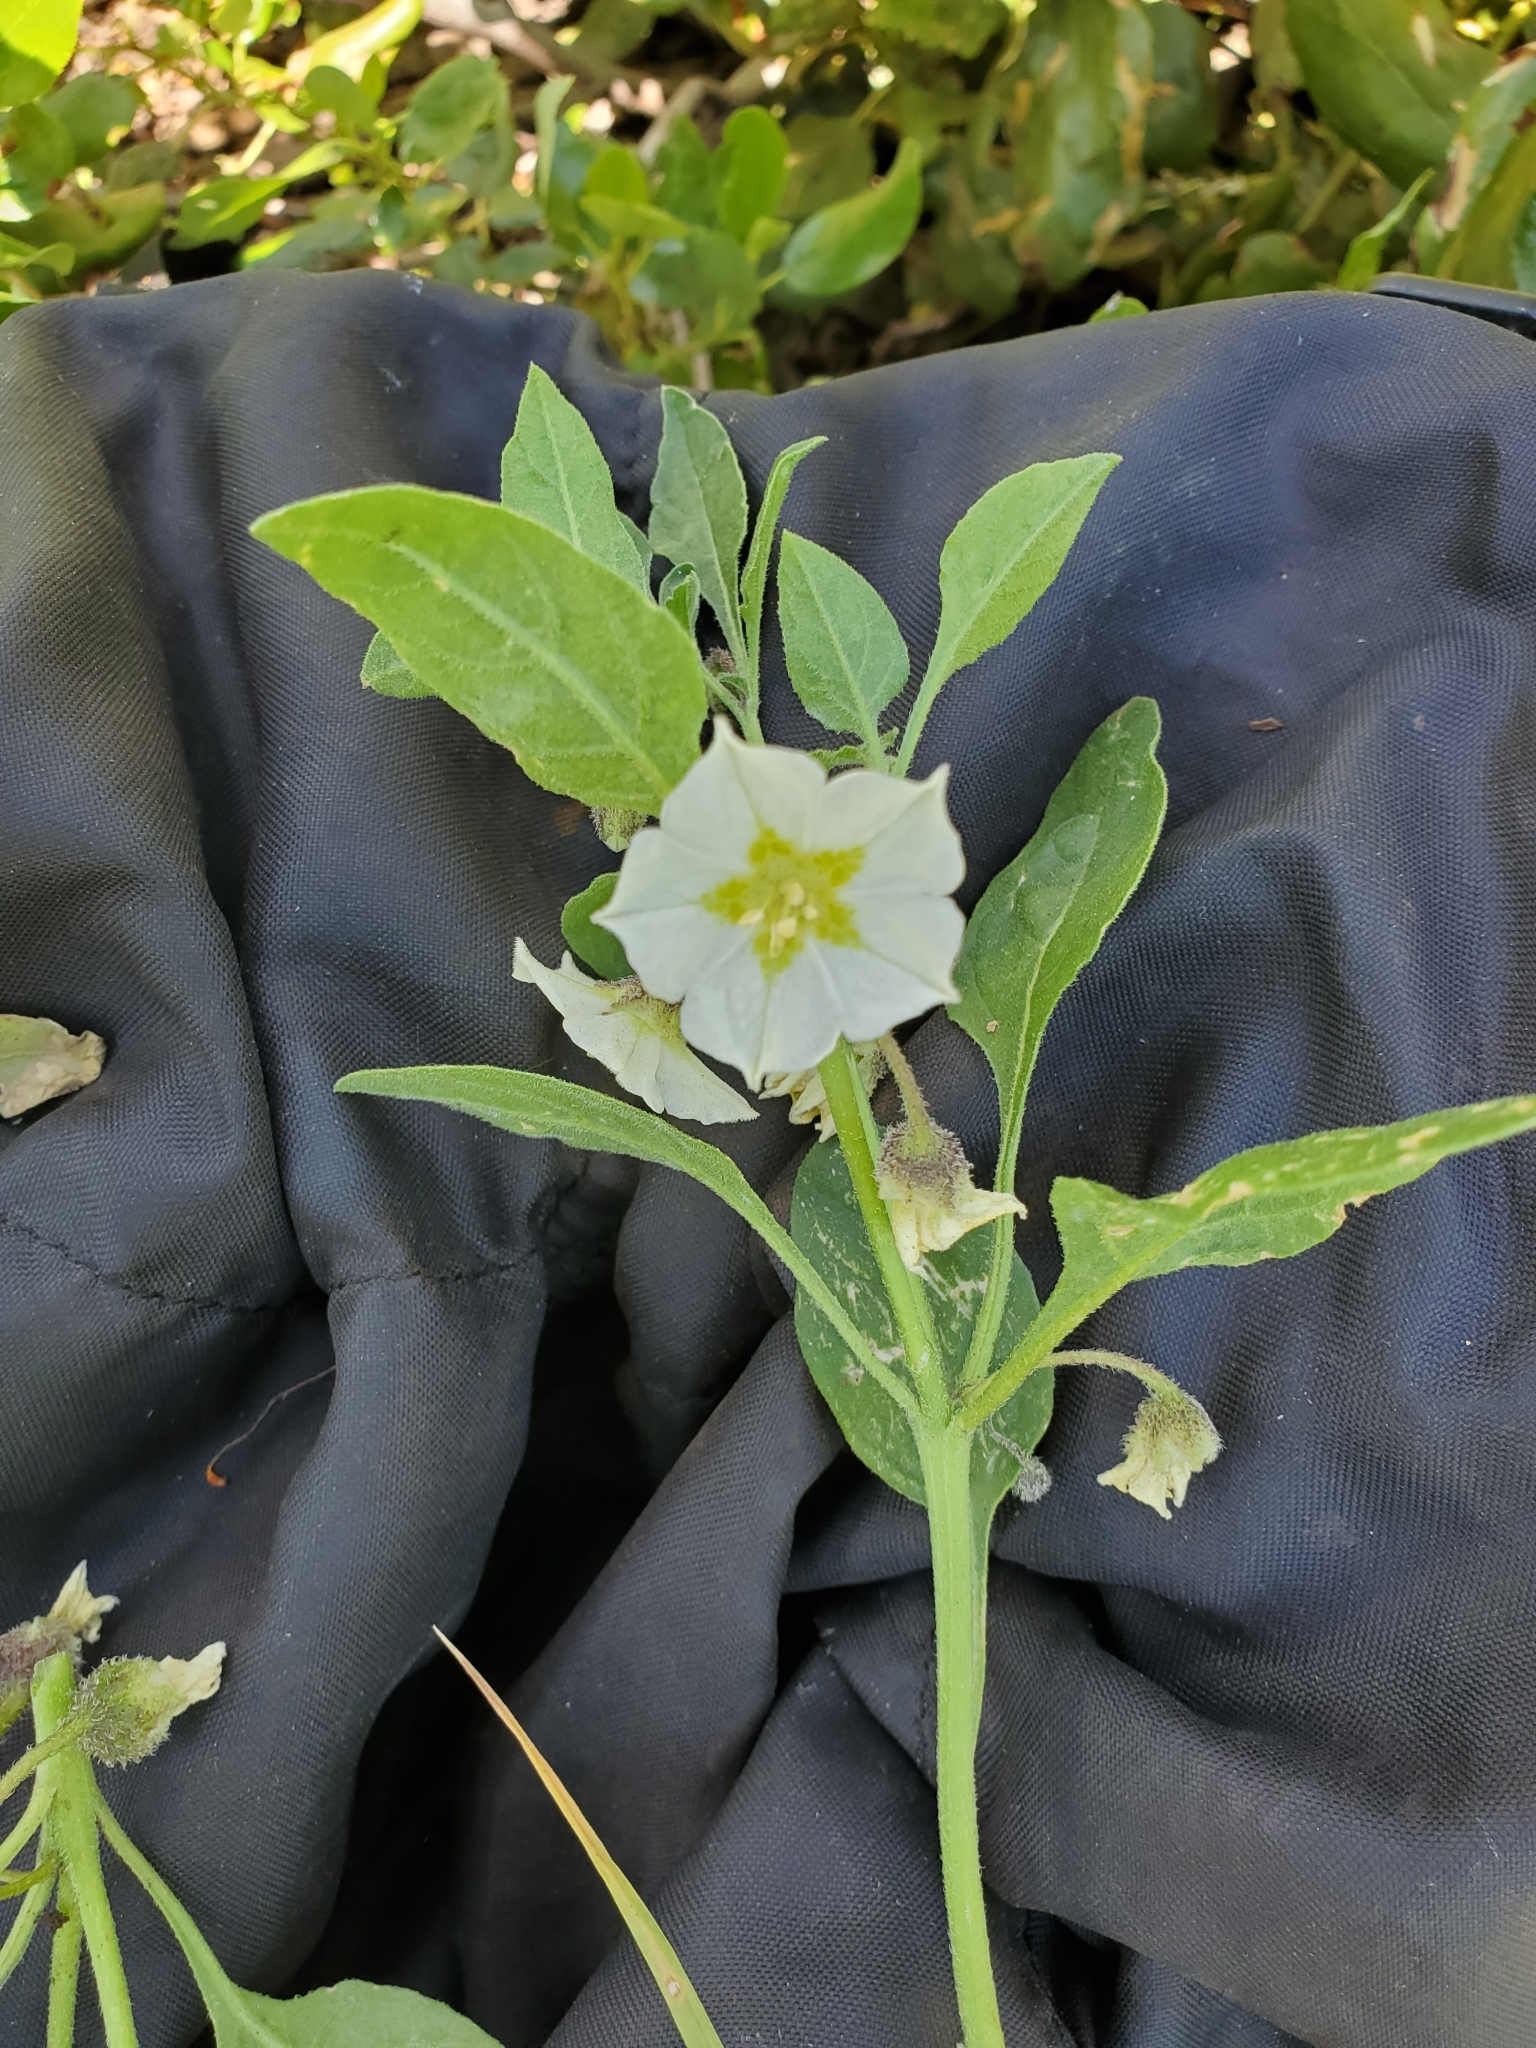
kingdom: Plantae
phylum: Tracheophyta
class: Magnoliopsida
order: Solanales
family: Solanaceae
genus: Leucophysalis
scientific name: Leucophysalis nana
